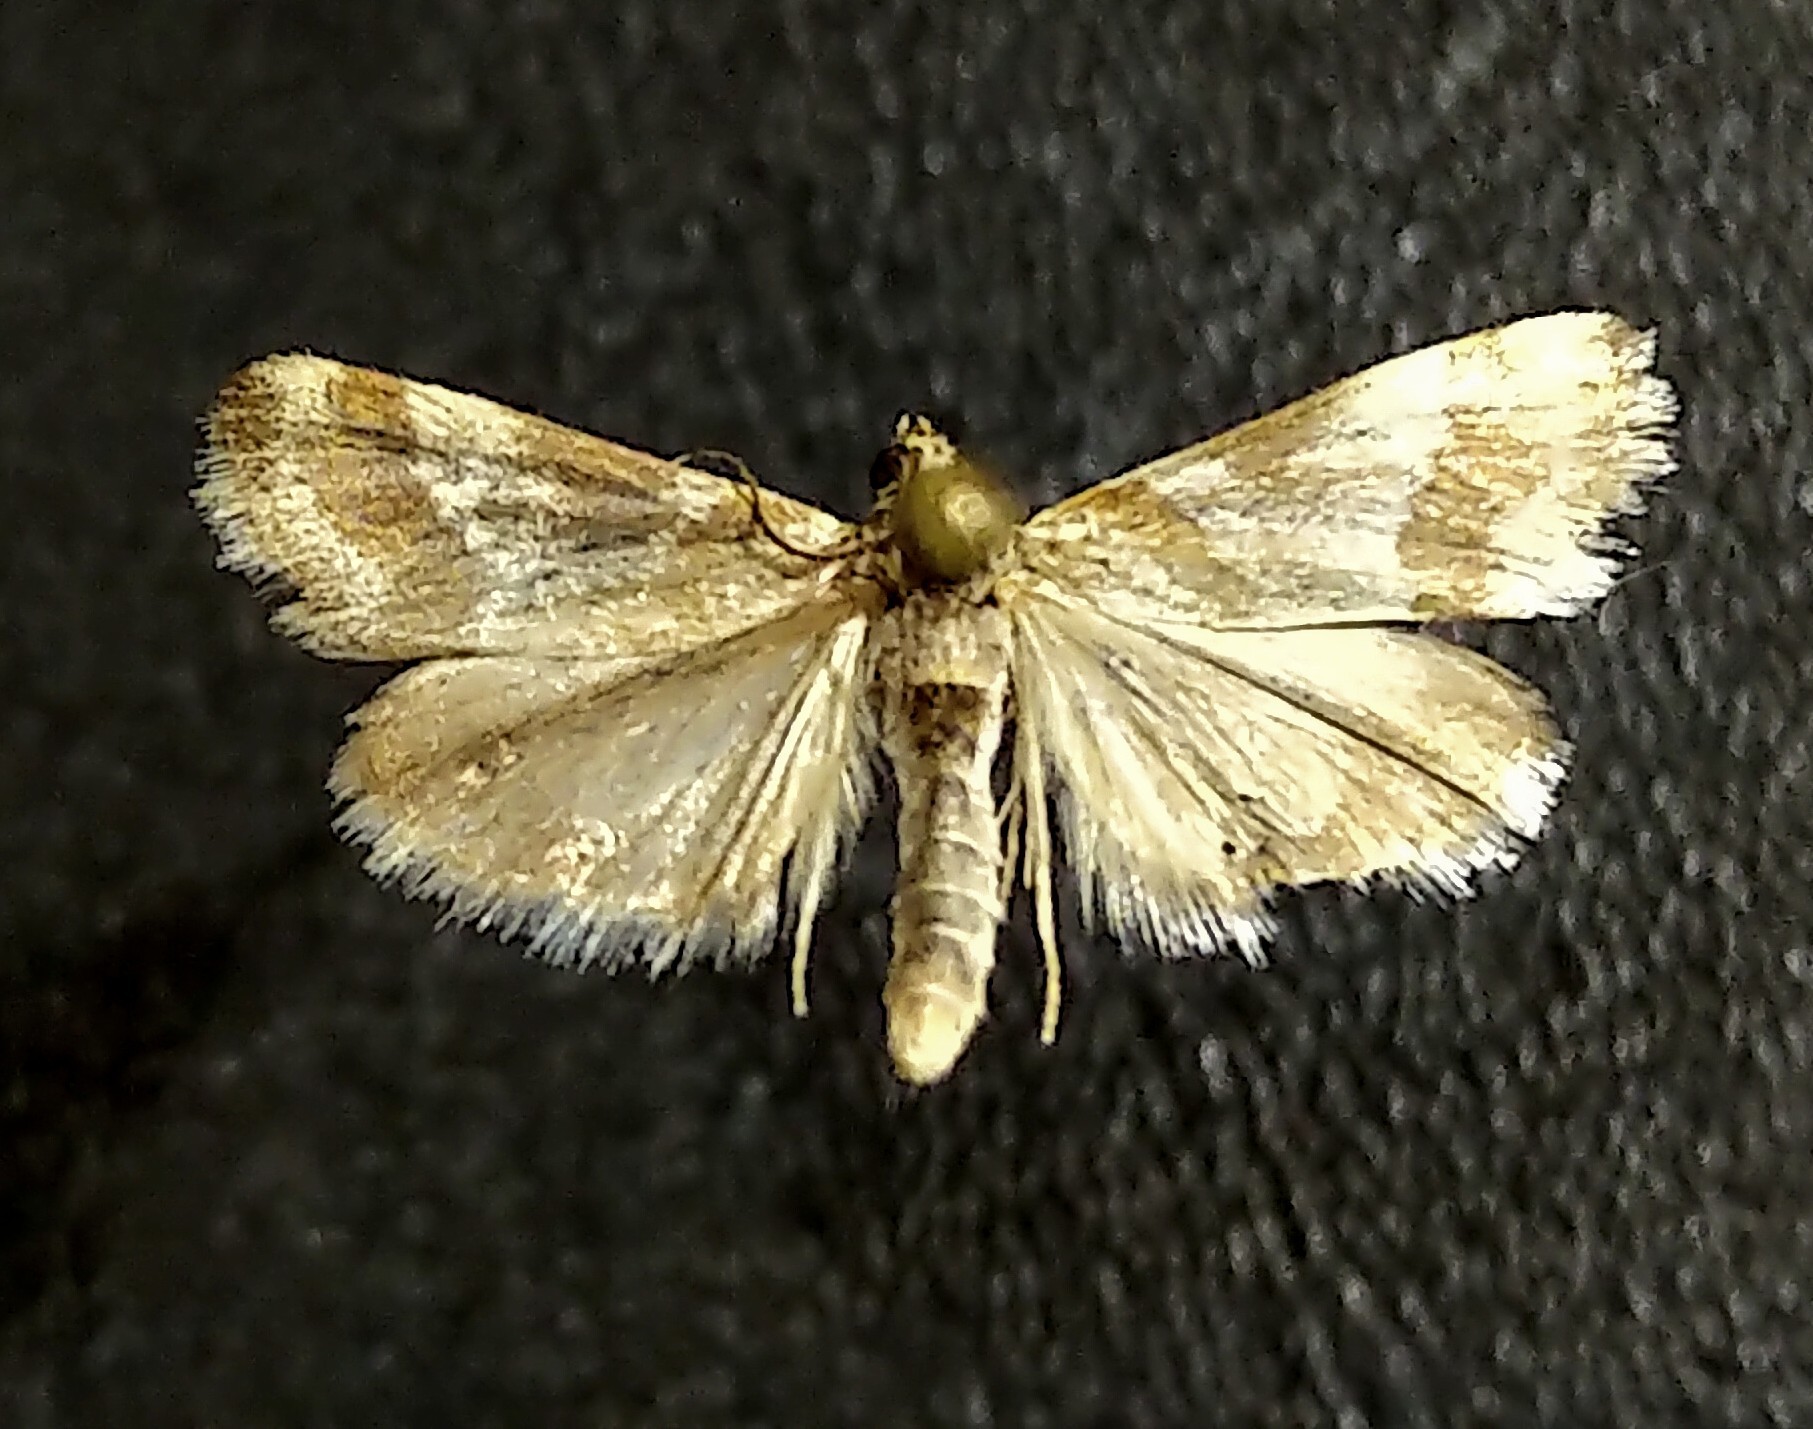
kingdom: Animalia
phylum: Arthropoda
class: Insecta
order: Lepidoptera
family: Crambidae
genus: Noctuelia
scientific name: Noctuelia Mimoschinia rufofascialis
